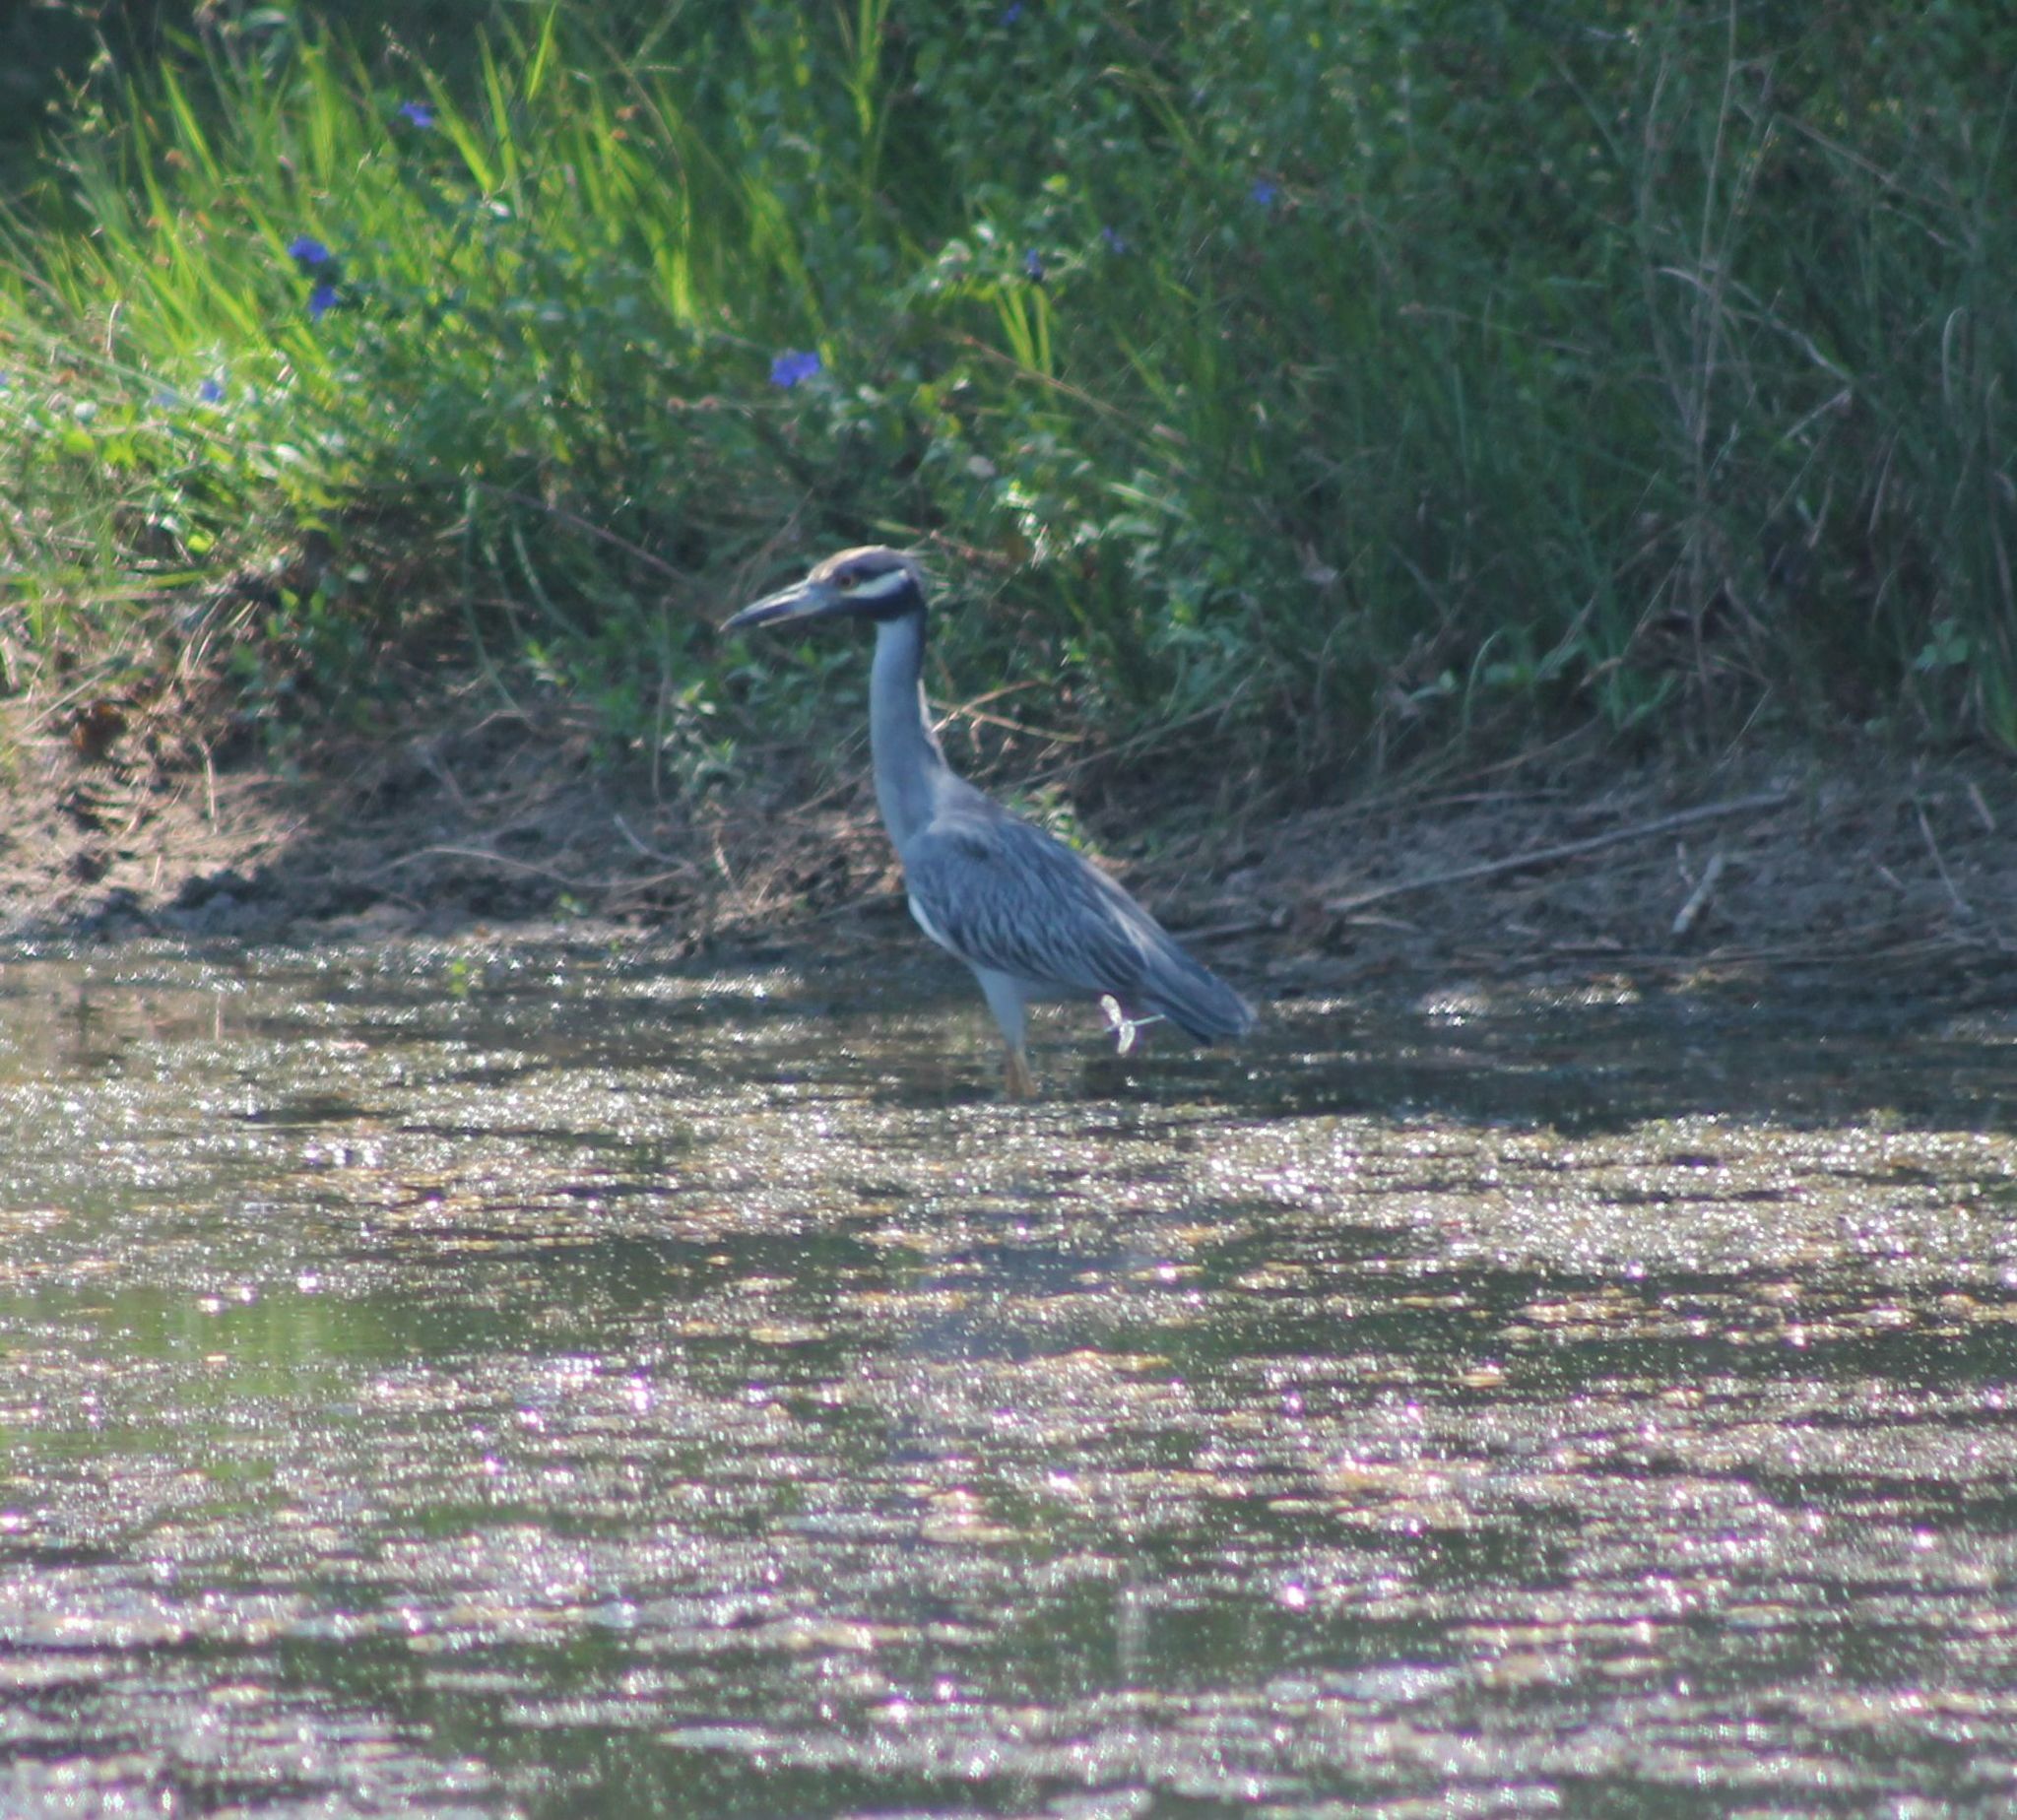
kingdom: Animalia
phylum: Chordata
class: Aves
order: Pelecaniformes
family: Ardeidae
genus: Nyctanassa
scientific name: Nyctanassa violacea
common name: Yellow-crowned night heron
